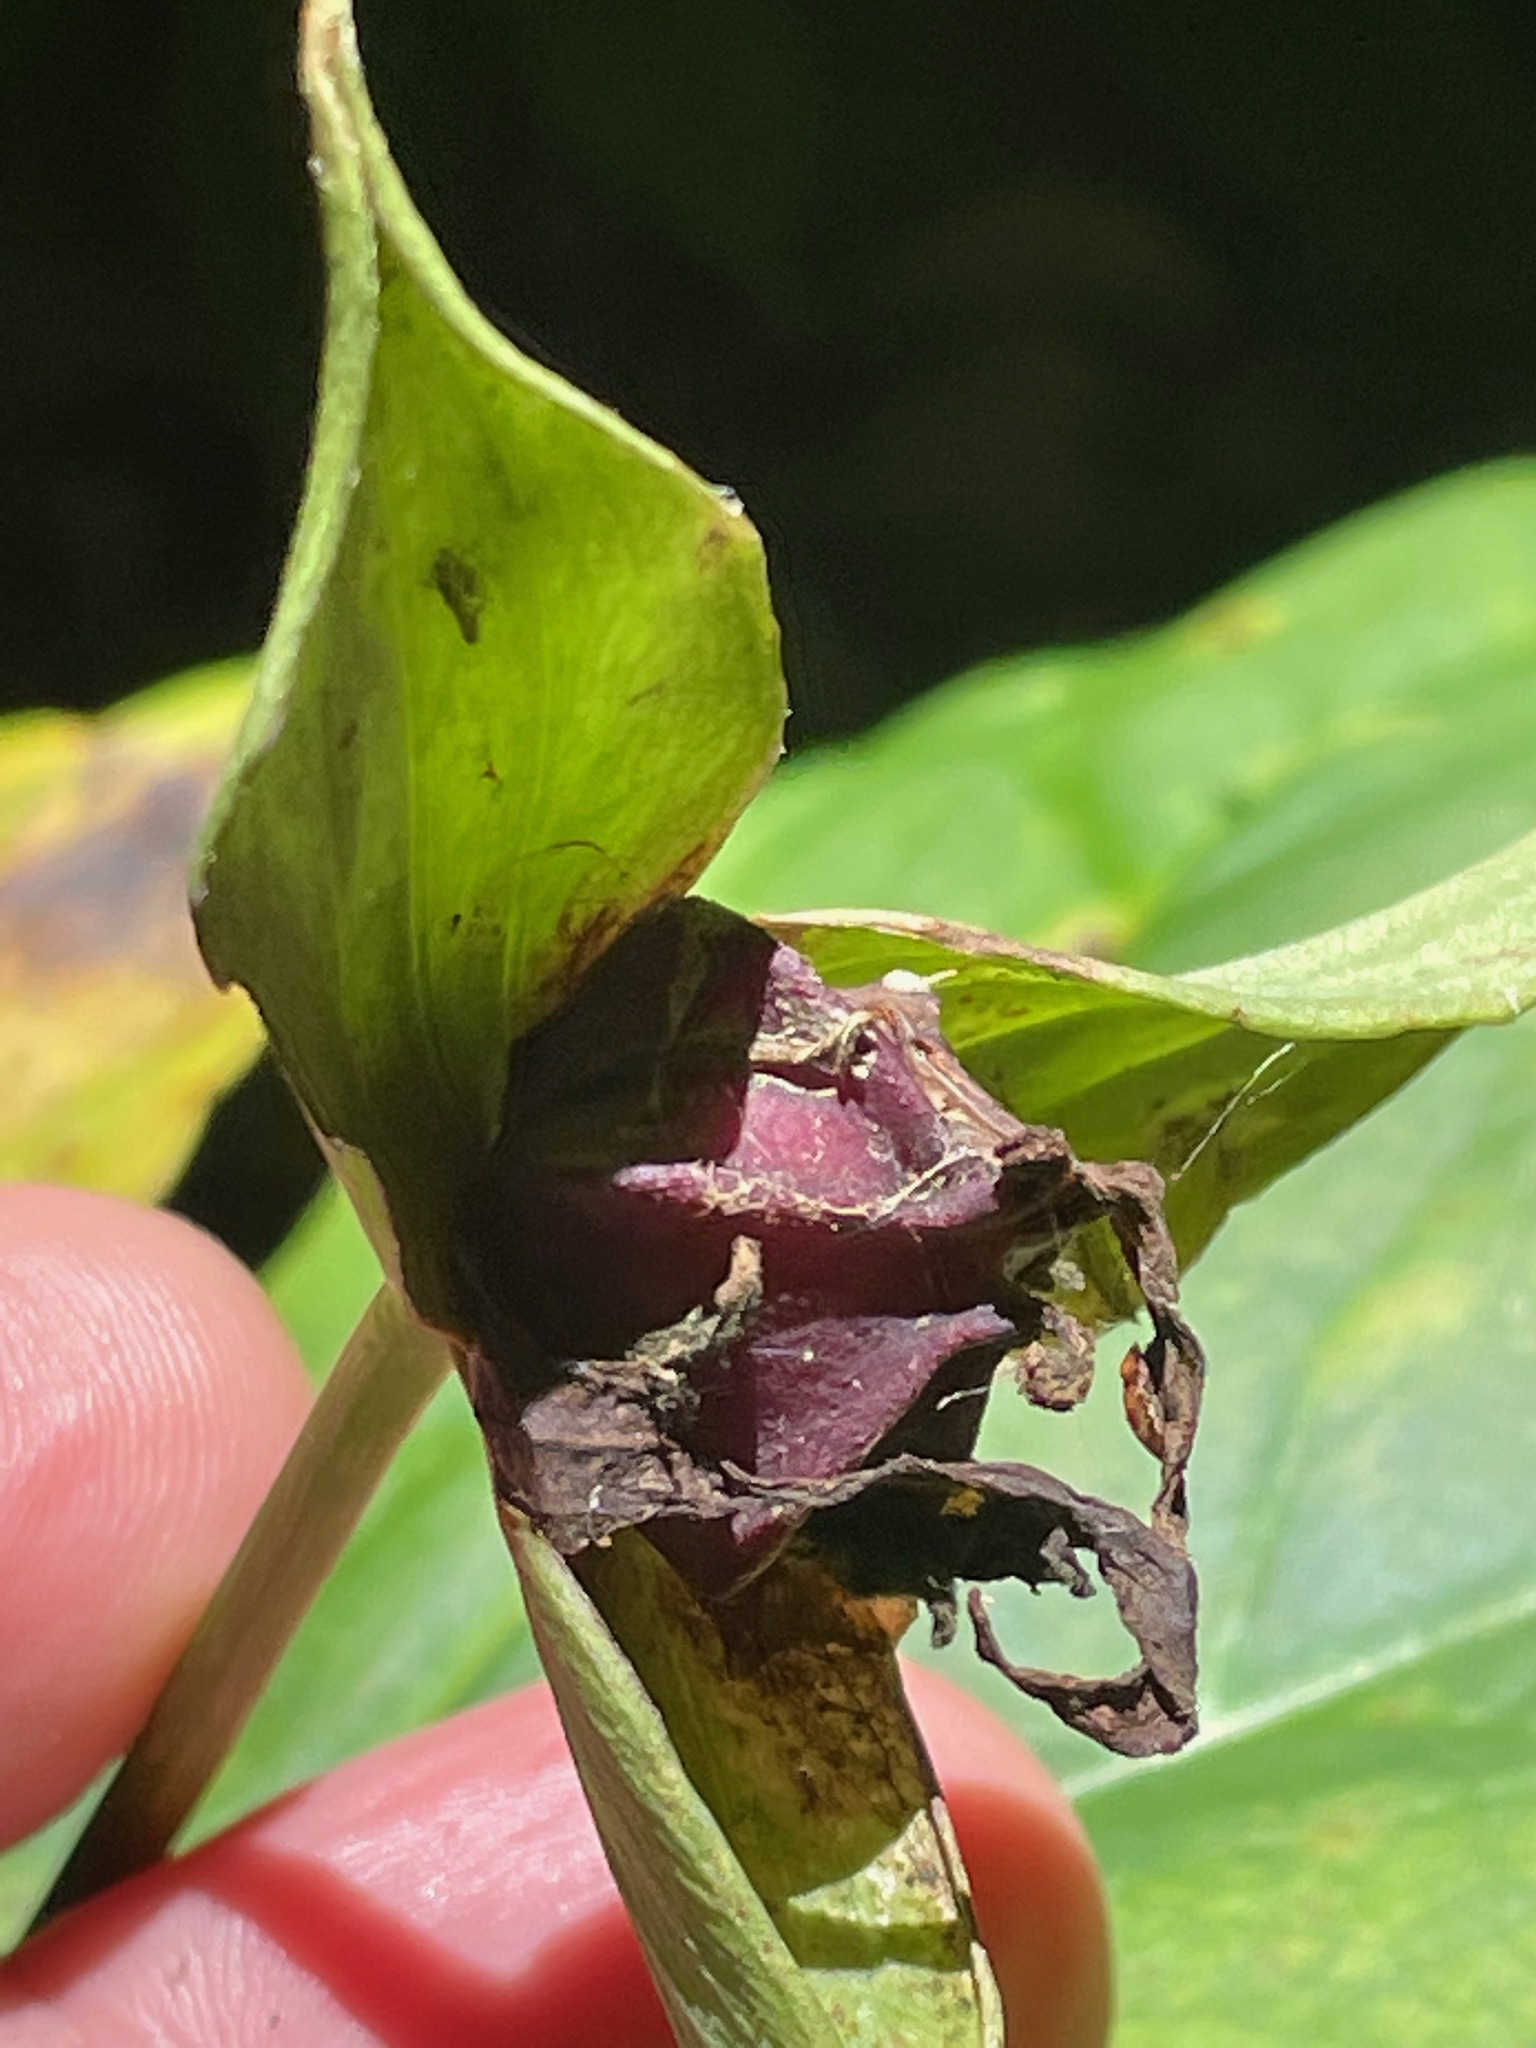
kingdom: Plantae
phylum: Tracheophyta
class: Liliopsida
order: Liliales
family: Melanthiaceae
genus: Trillium
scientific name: Trillium erectum
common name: Purple trillium
